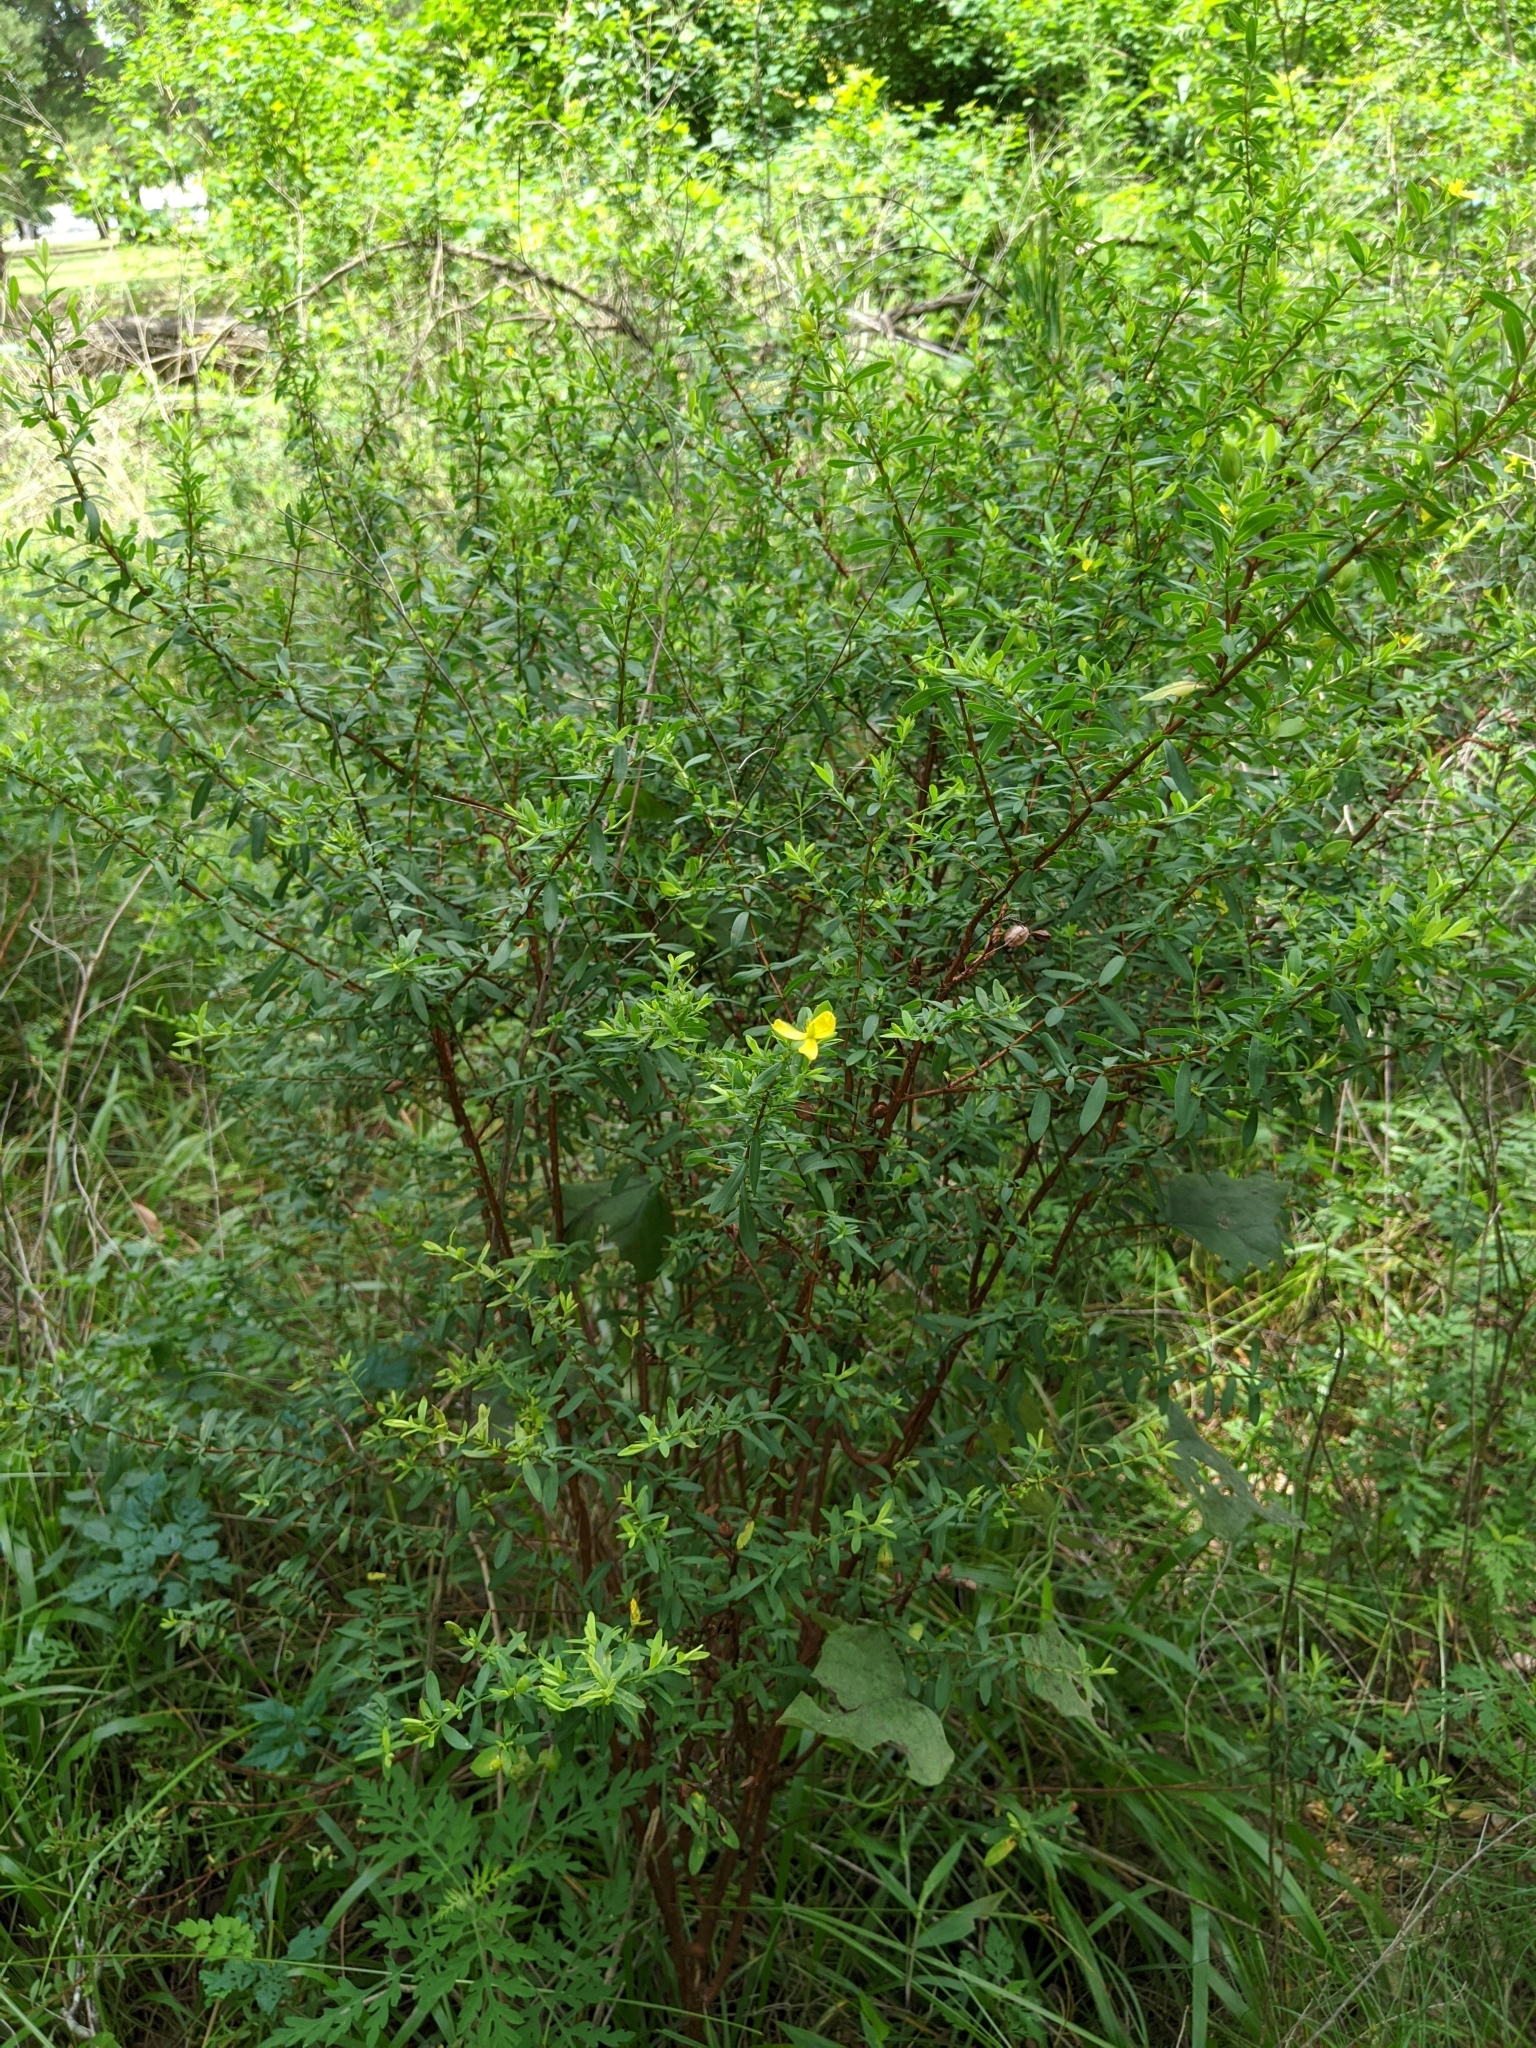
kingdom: Plantae
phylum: Tracheophyta
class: Magnoliopsida
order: Malpighiales
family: Hypericaceae
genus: Hypericum
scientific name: Hypericum hypericoides
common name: St. andrew's cross
